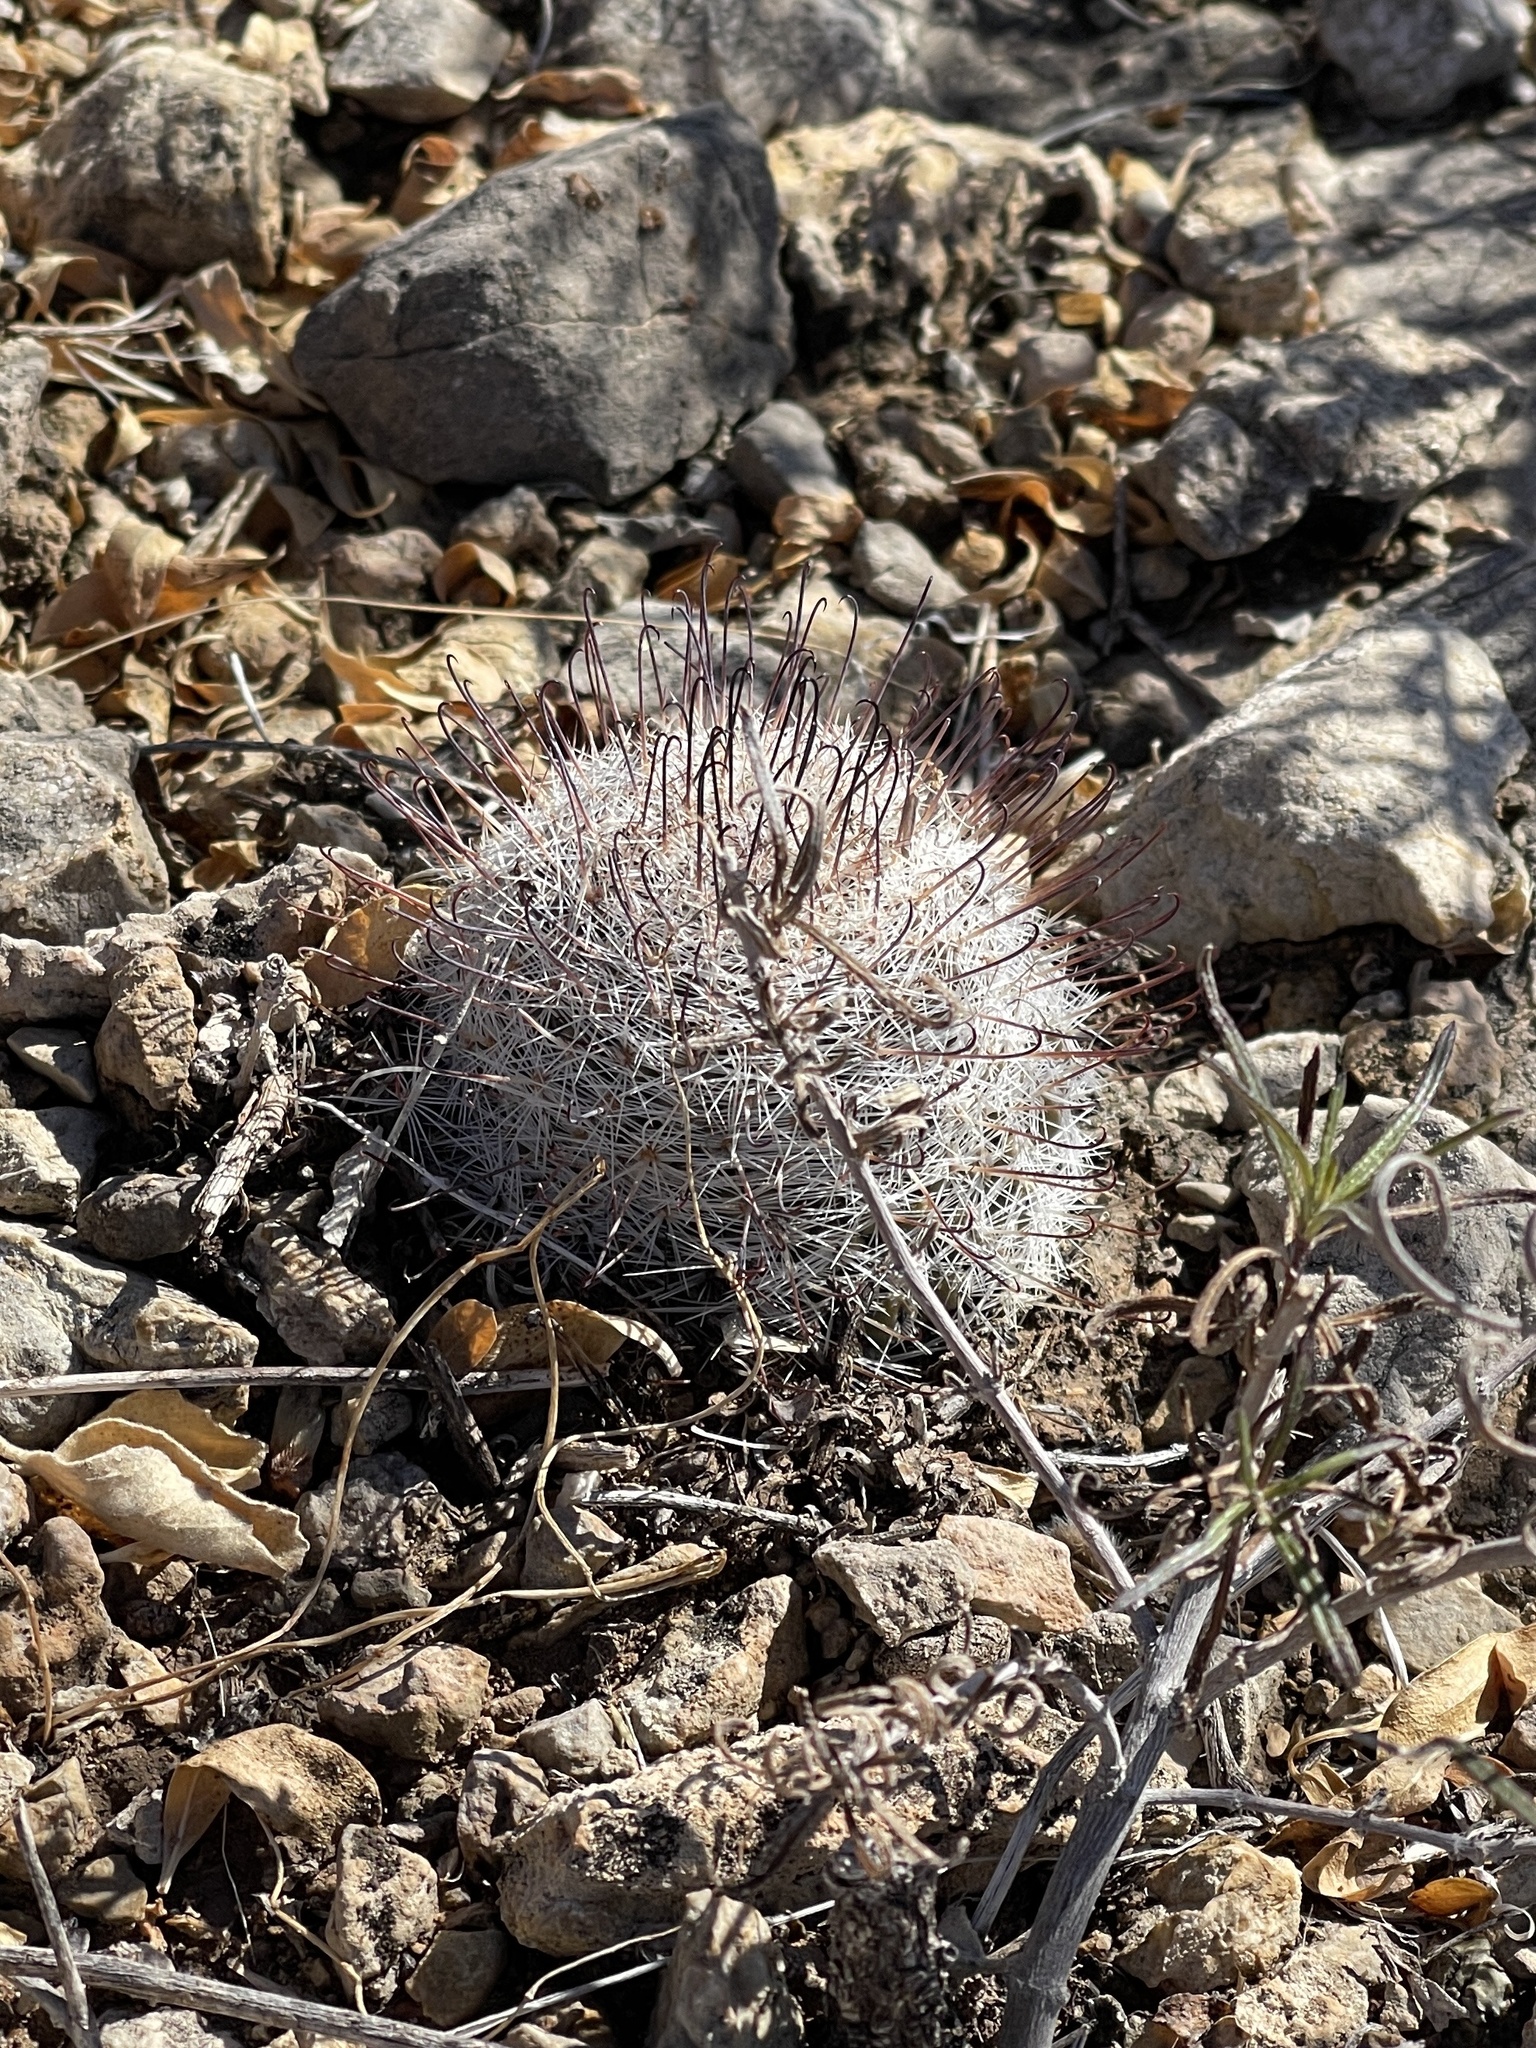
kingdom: Plantae
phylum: Tracheophyta
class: Magnoliopsida
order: Caryophyllales
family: Cactaceae
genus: Cochemiea
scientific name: Cochemiea grahamii
